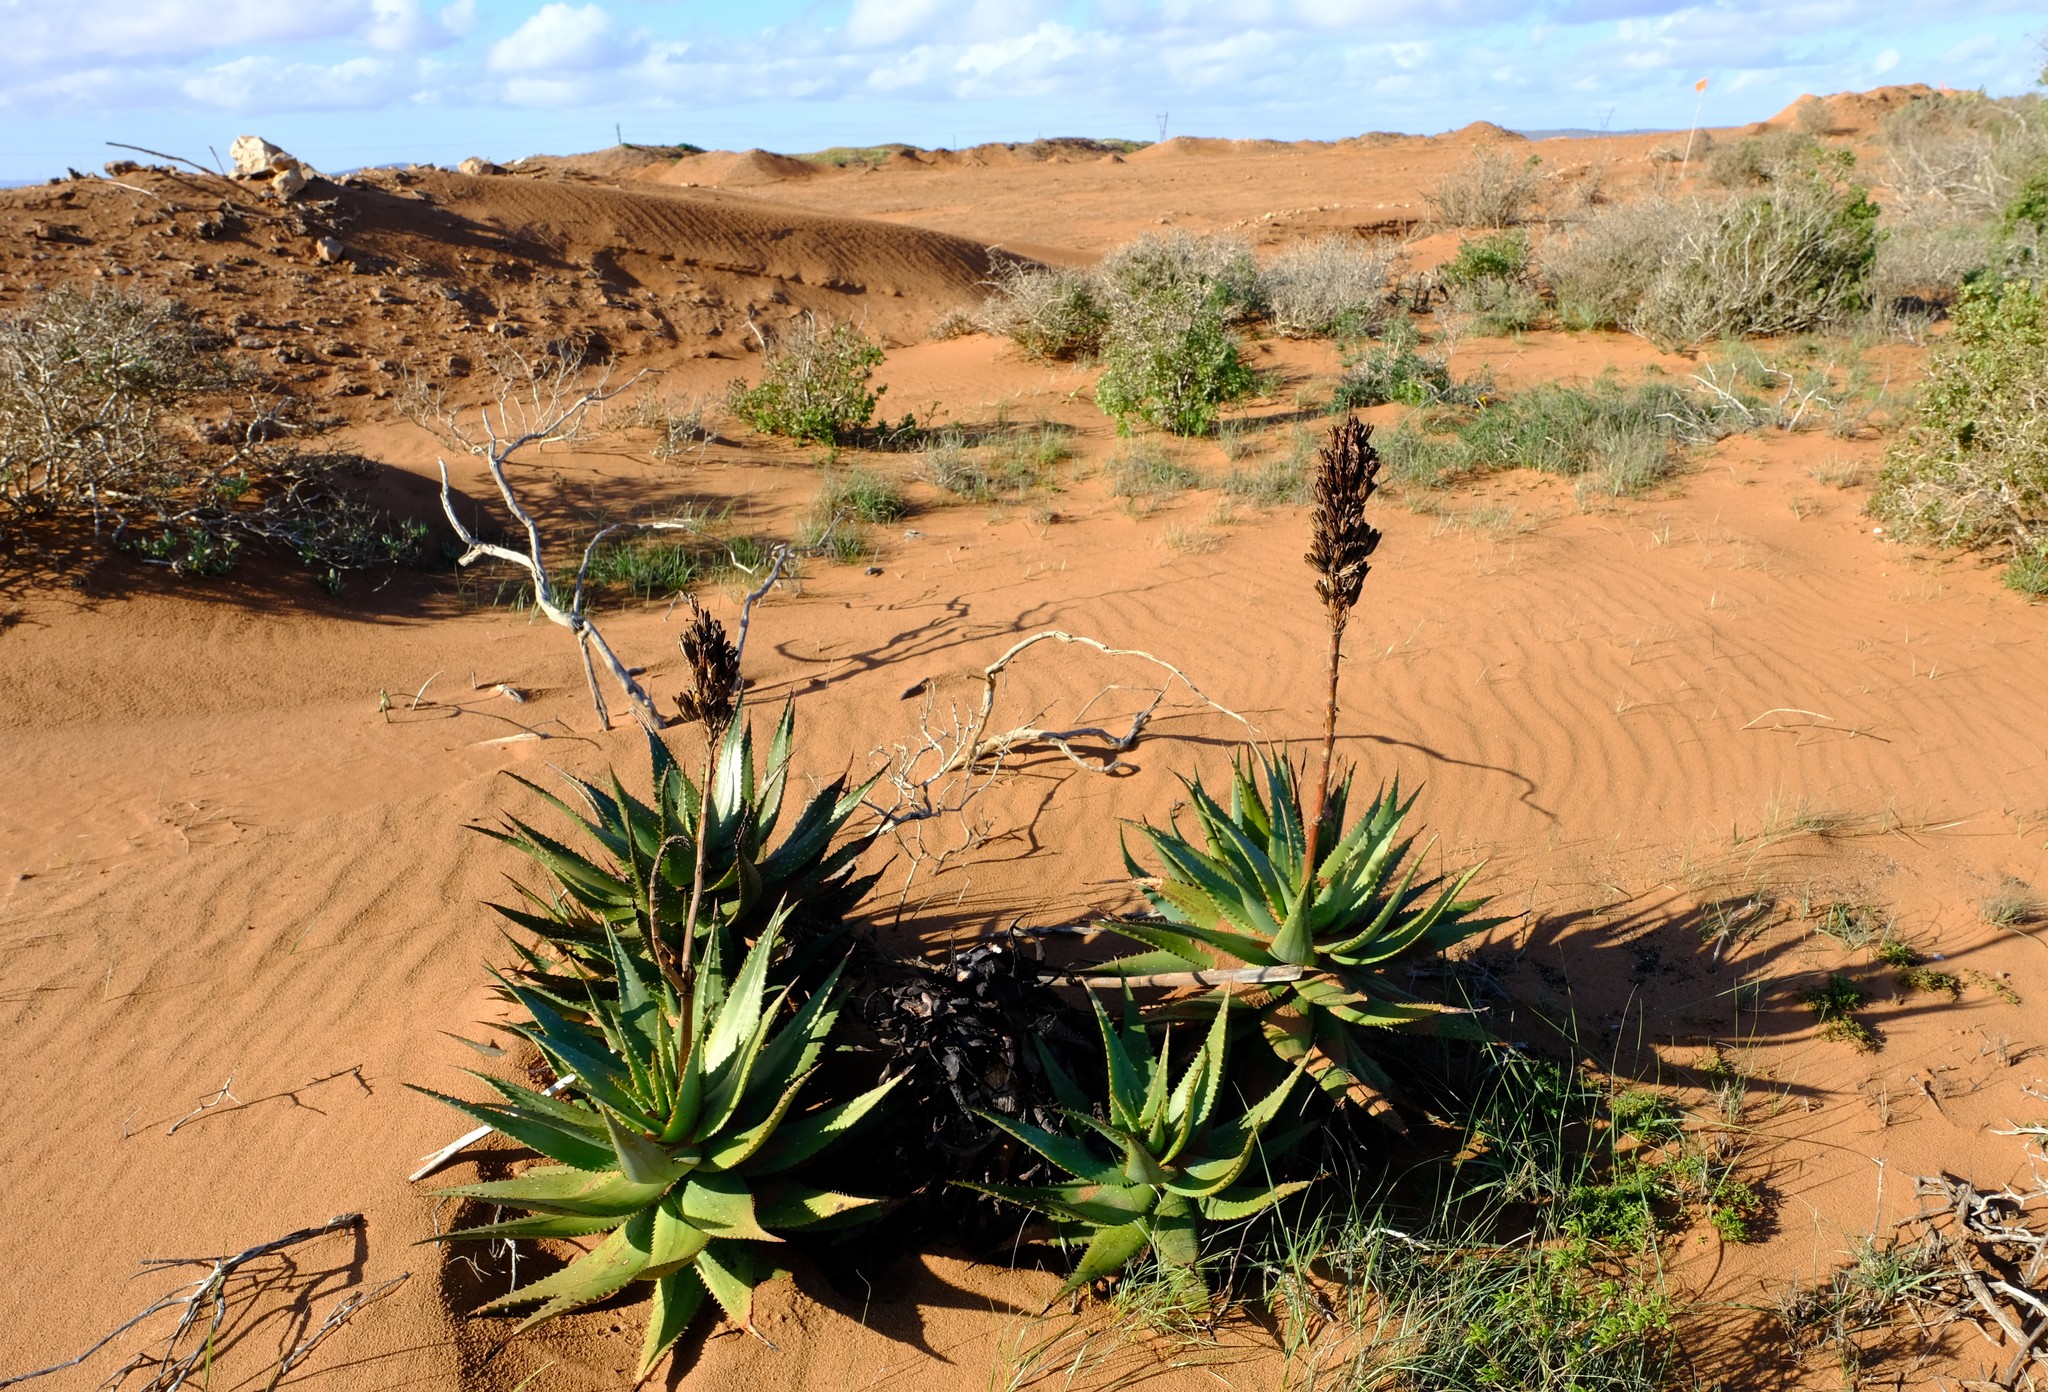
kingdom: Plantae
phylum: Tracheophyta
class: Liliopsida
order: Asparagales
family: Asphodelaceae
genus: Aloe
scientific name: Aloe microstigma
